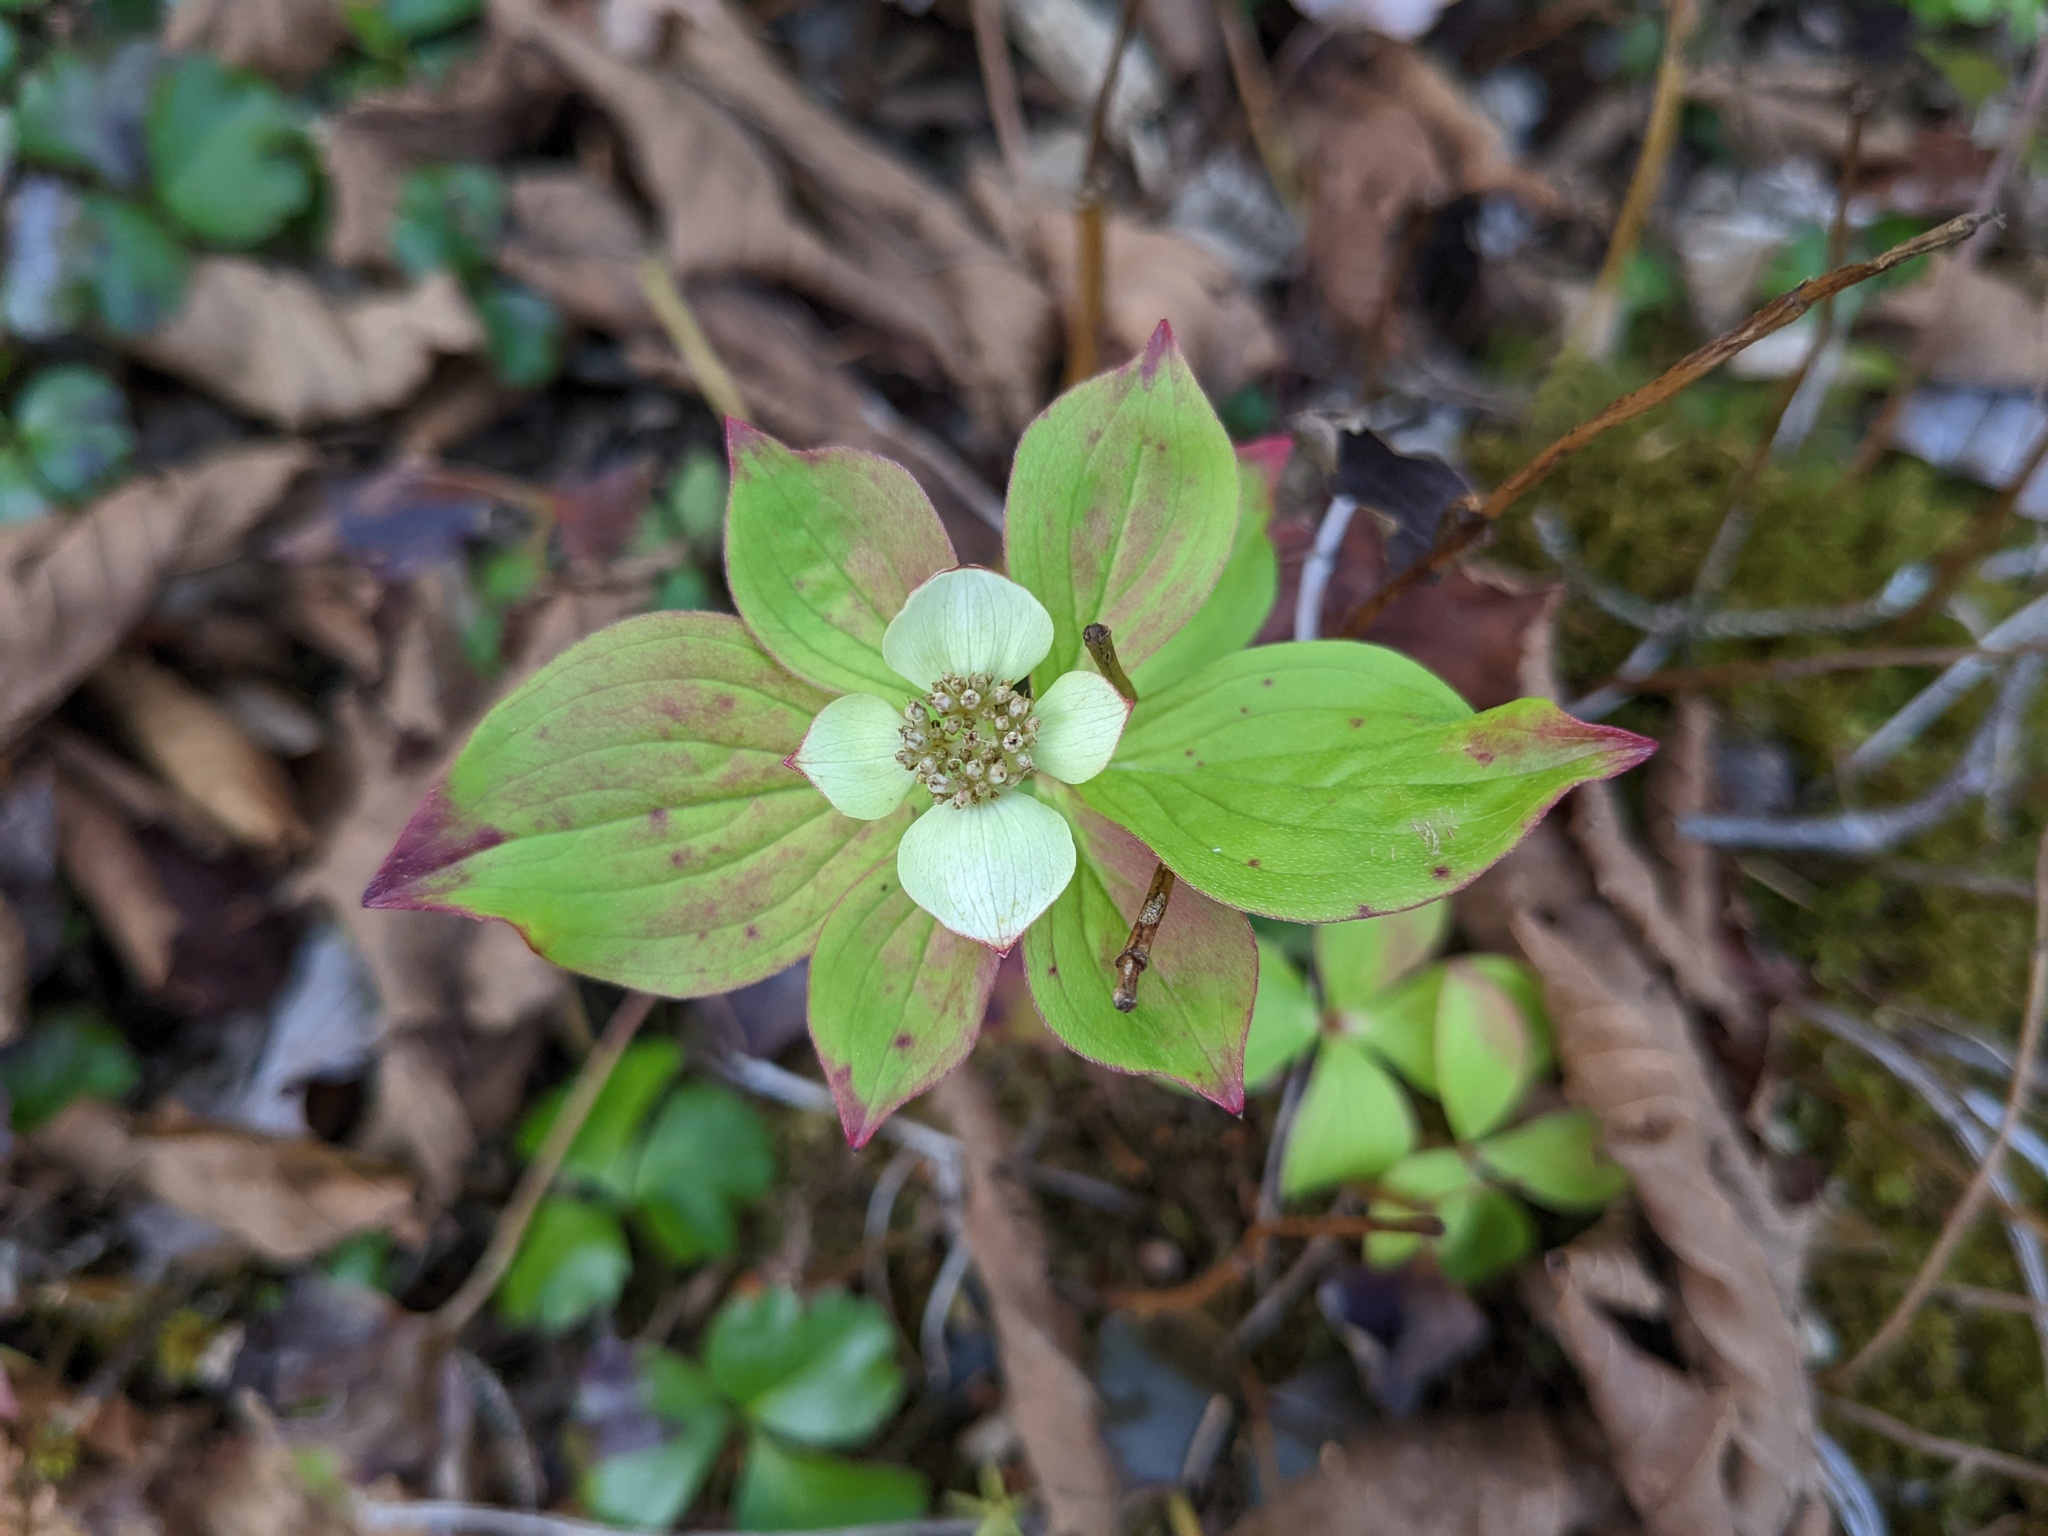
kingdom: Plantae
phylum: Tracheophyta
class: Magnoliopsida
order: Cornales
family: Cornaceae
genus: Cornus
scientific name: Cornus canadensis
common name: Creeping dogwood
